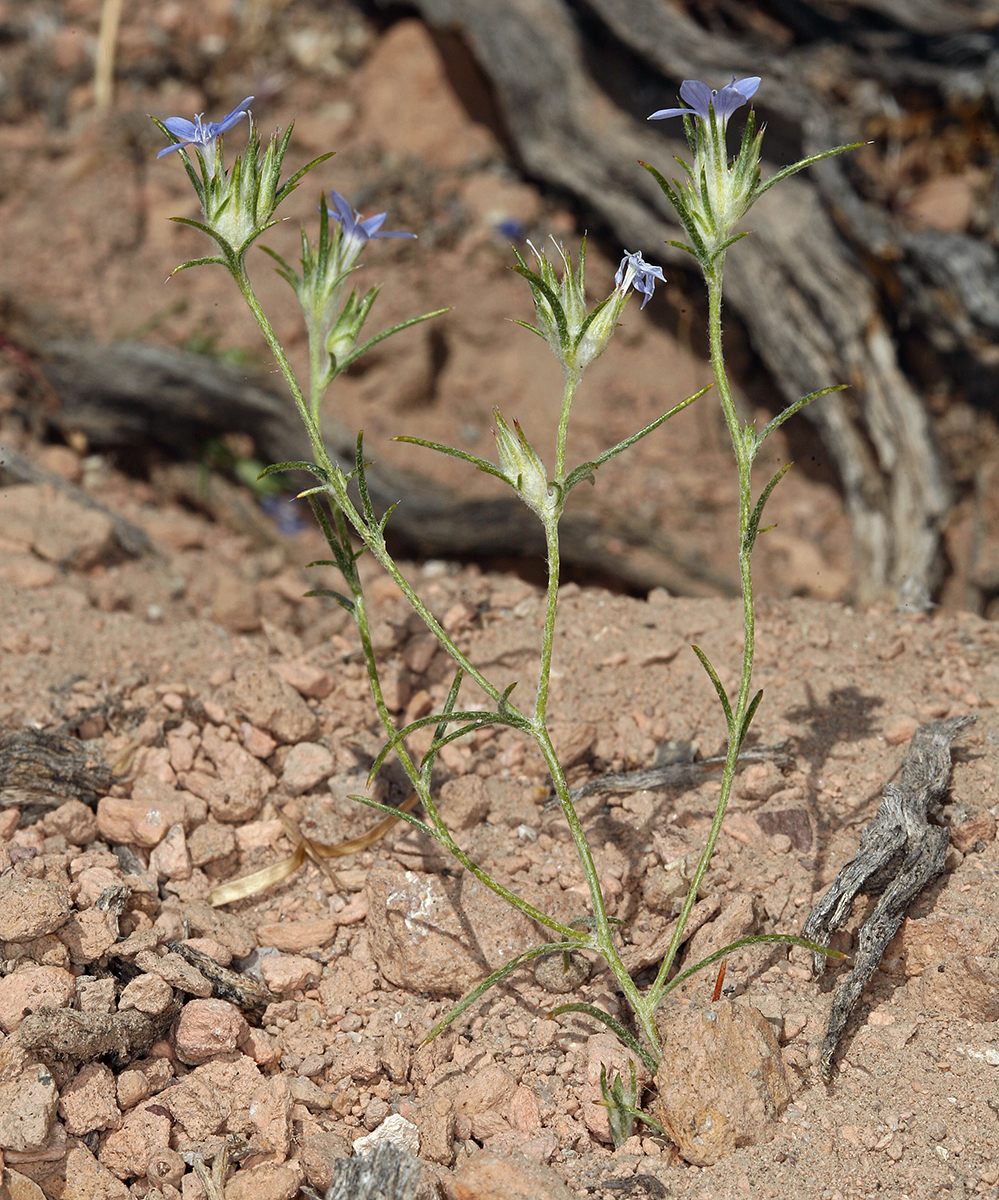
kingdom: Plantae
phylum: Tracheophyta
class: Magnoliopsida
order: Ericales
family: Polemoniaceae
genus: Eriastrum
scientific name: Eriastrum wilcoxii
